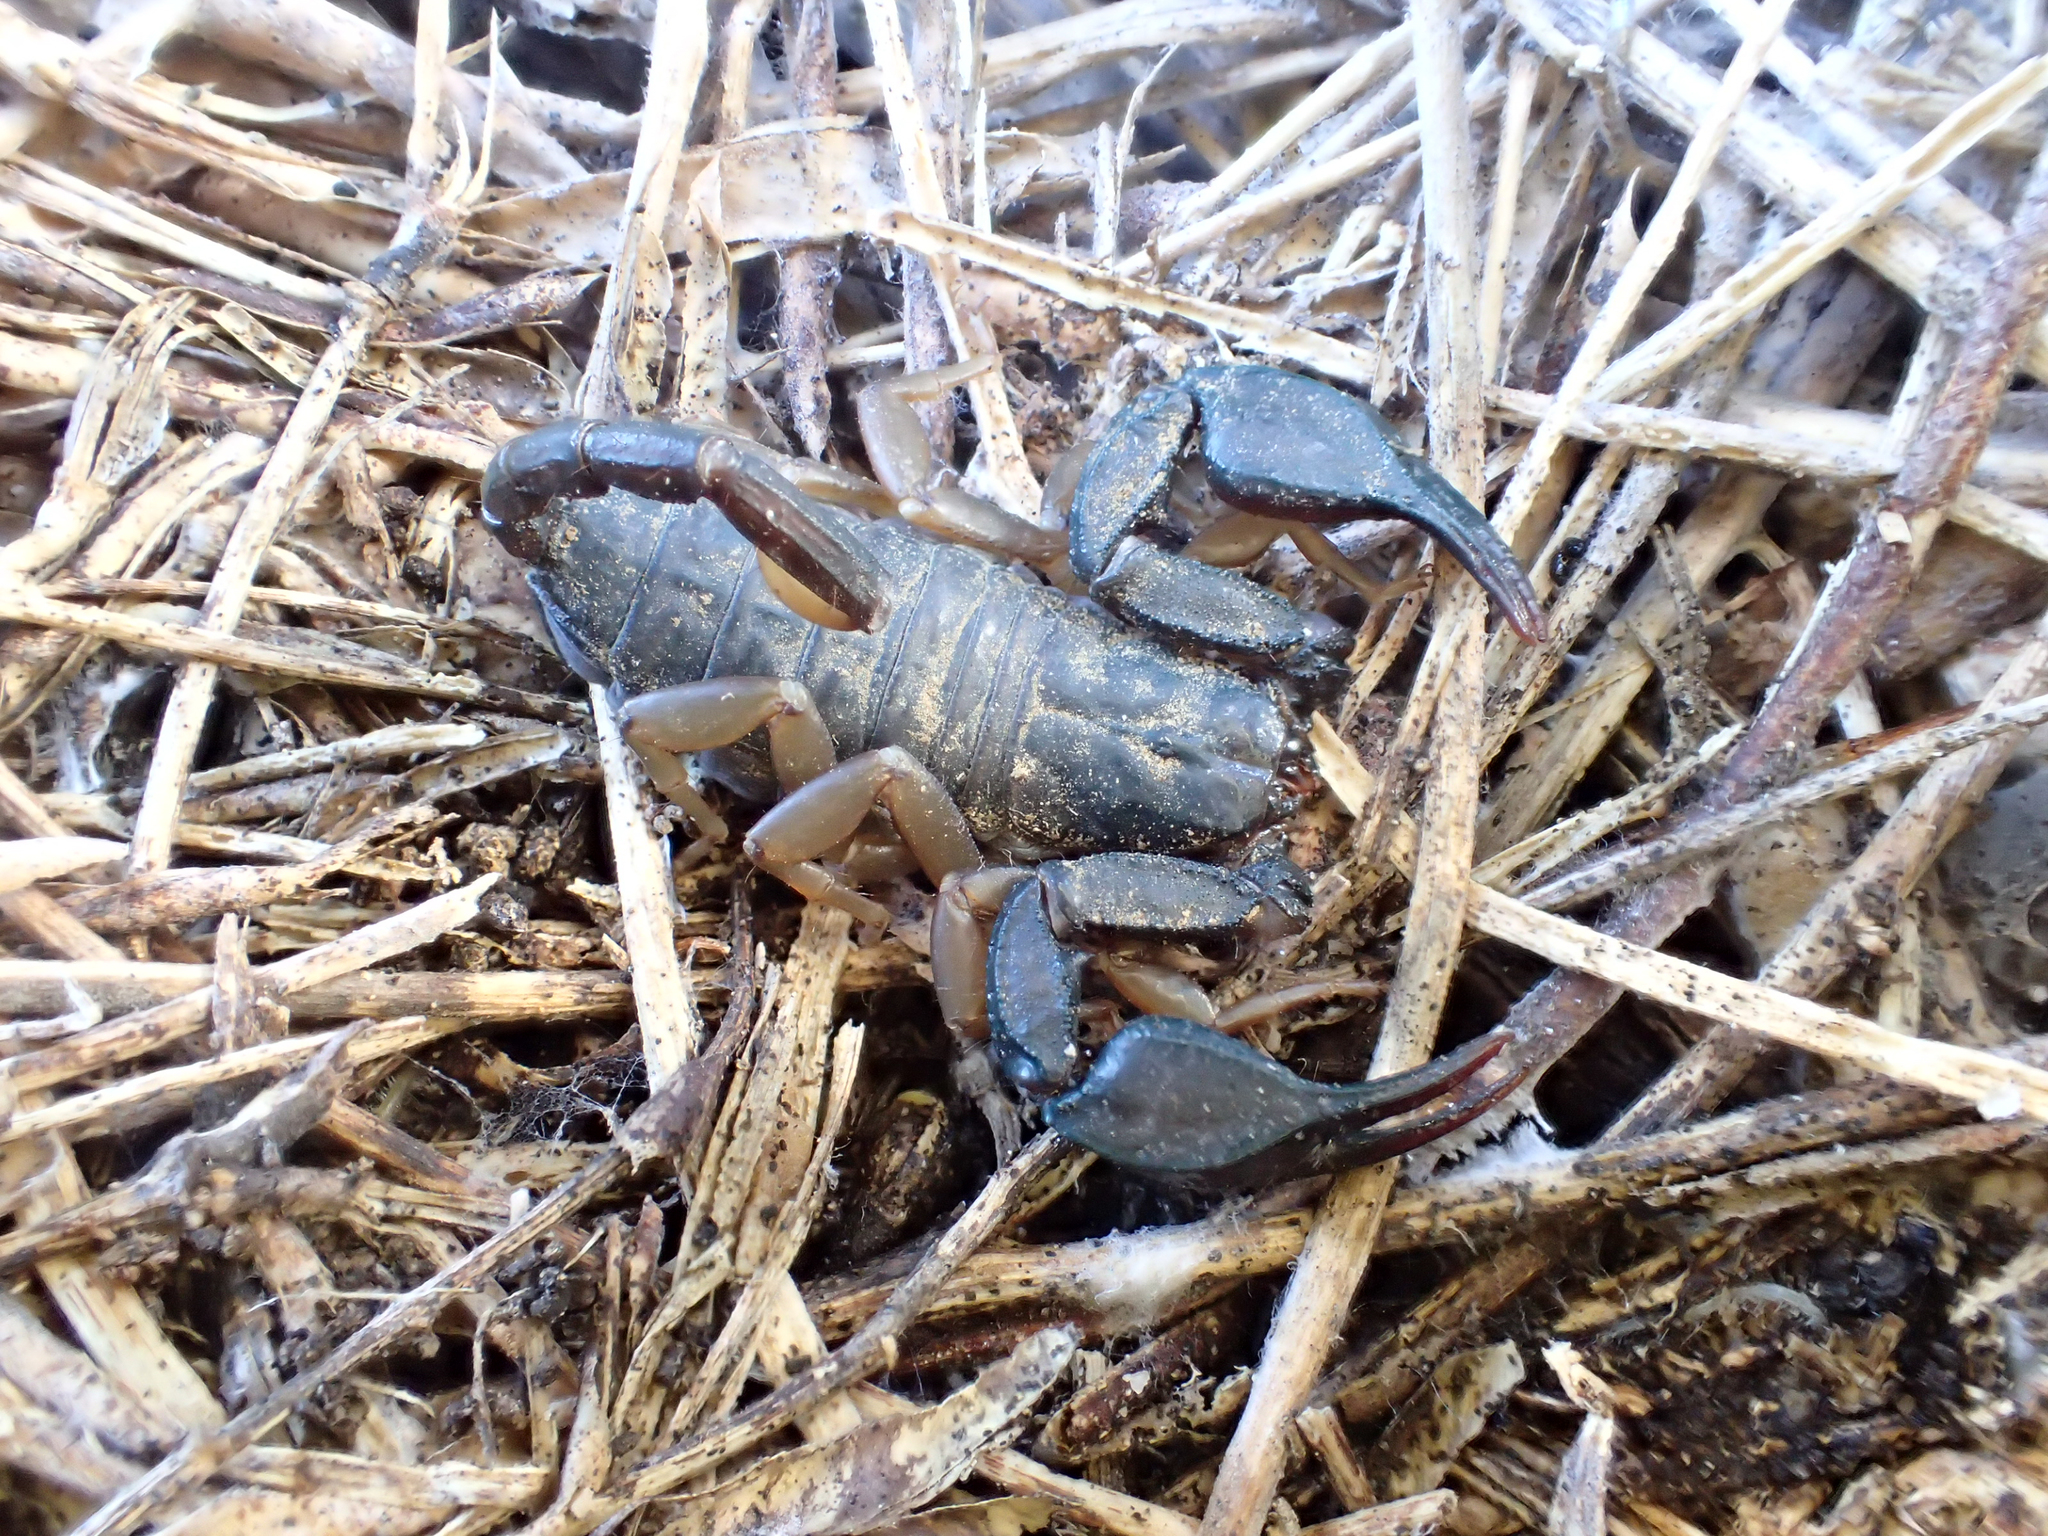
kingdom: Animalia
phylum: Arthropoda
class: Arachnida
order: Scorpiones
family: Euscorpiidae
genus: Euscorpius
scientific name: Euscorpius flavicaudis
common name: European yellow-tailed scorpion
